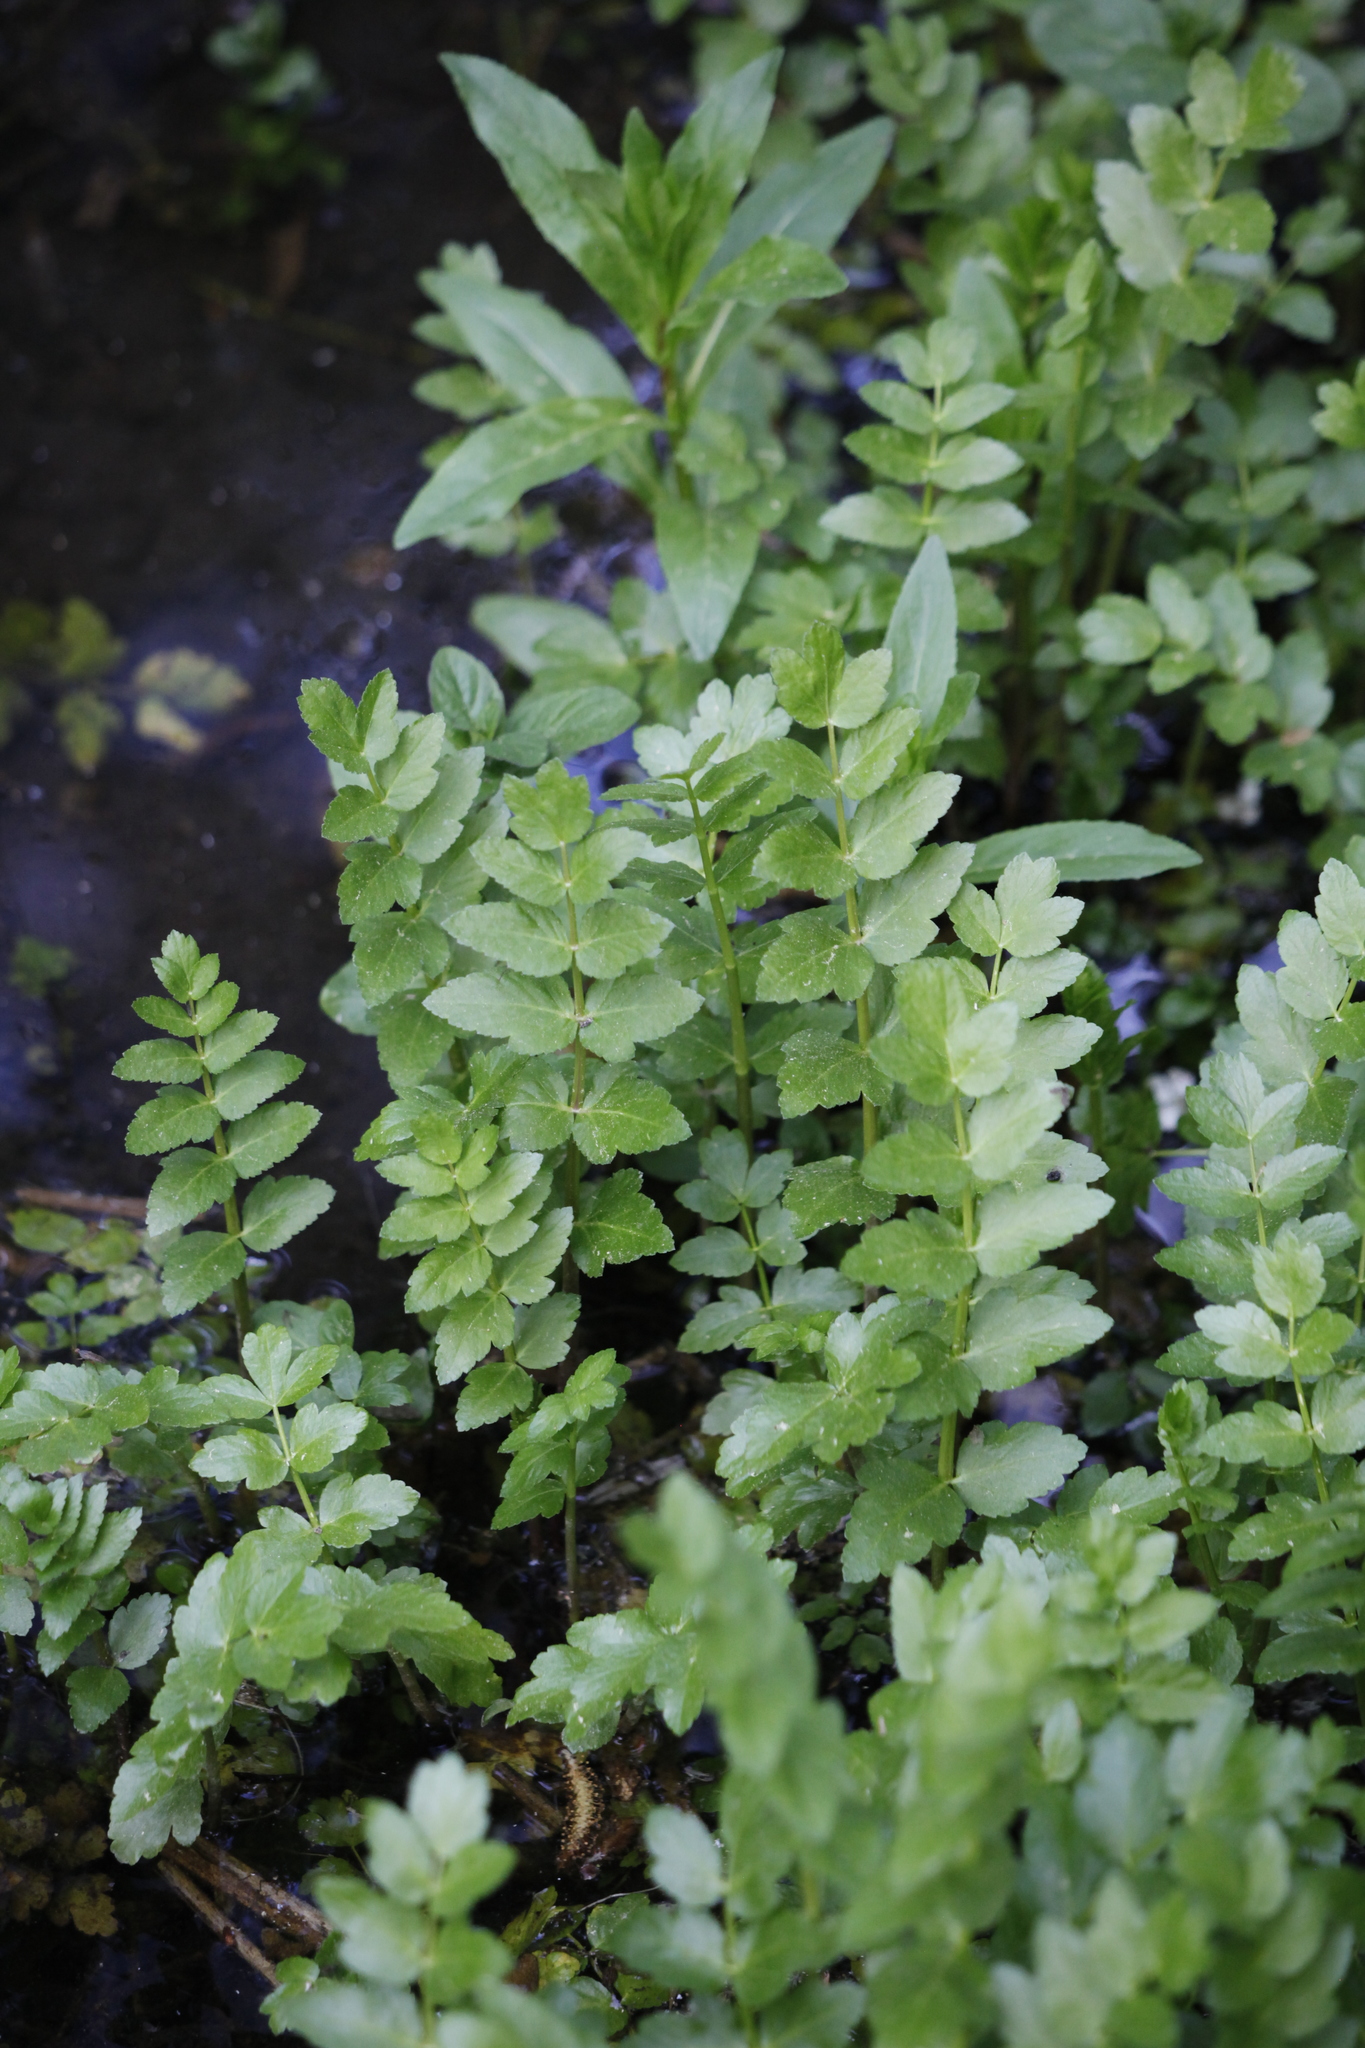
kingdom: Plantae
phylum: Tracheophyta
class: Magnoliopsida
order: Apiales
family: Apiaceae
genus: Berula
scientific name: Berula erecta
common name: Lesser water-parsnip
